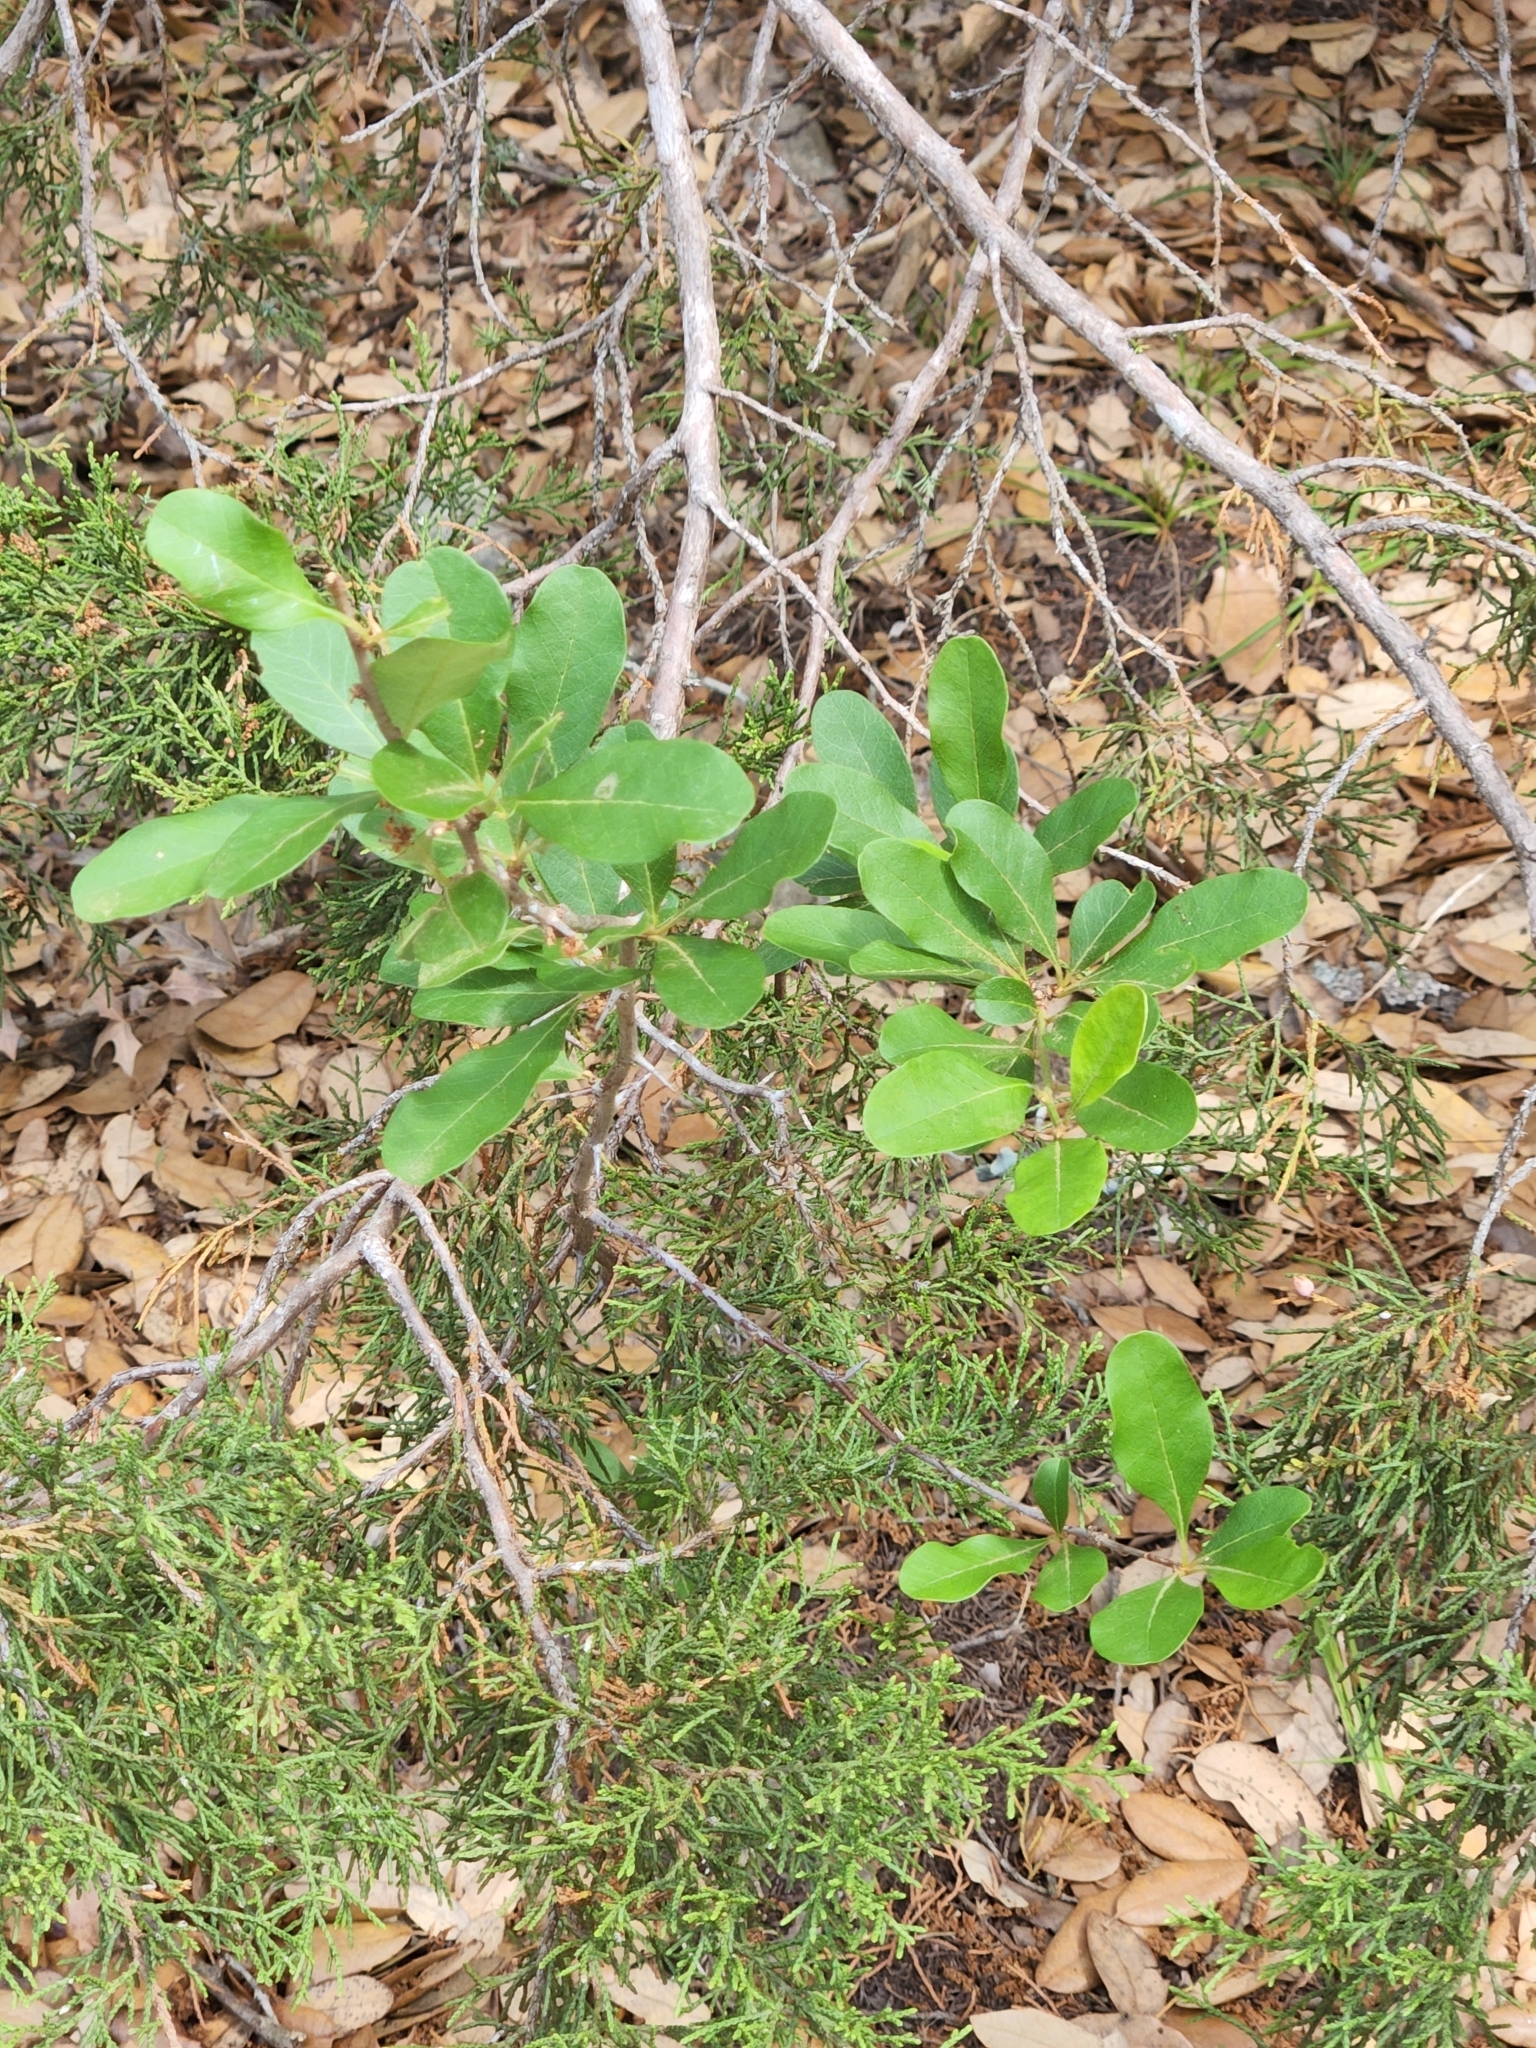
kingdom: Plantae
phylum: Tracheophyta
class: Magnoliopsida
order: Ericales
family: Sapotaceae
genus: Sideroxylon
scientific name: Sideroxylon lanuginosum
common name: Chittamwood
